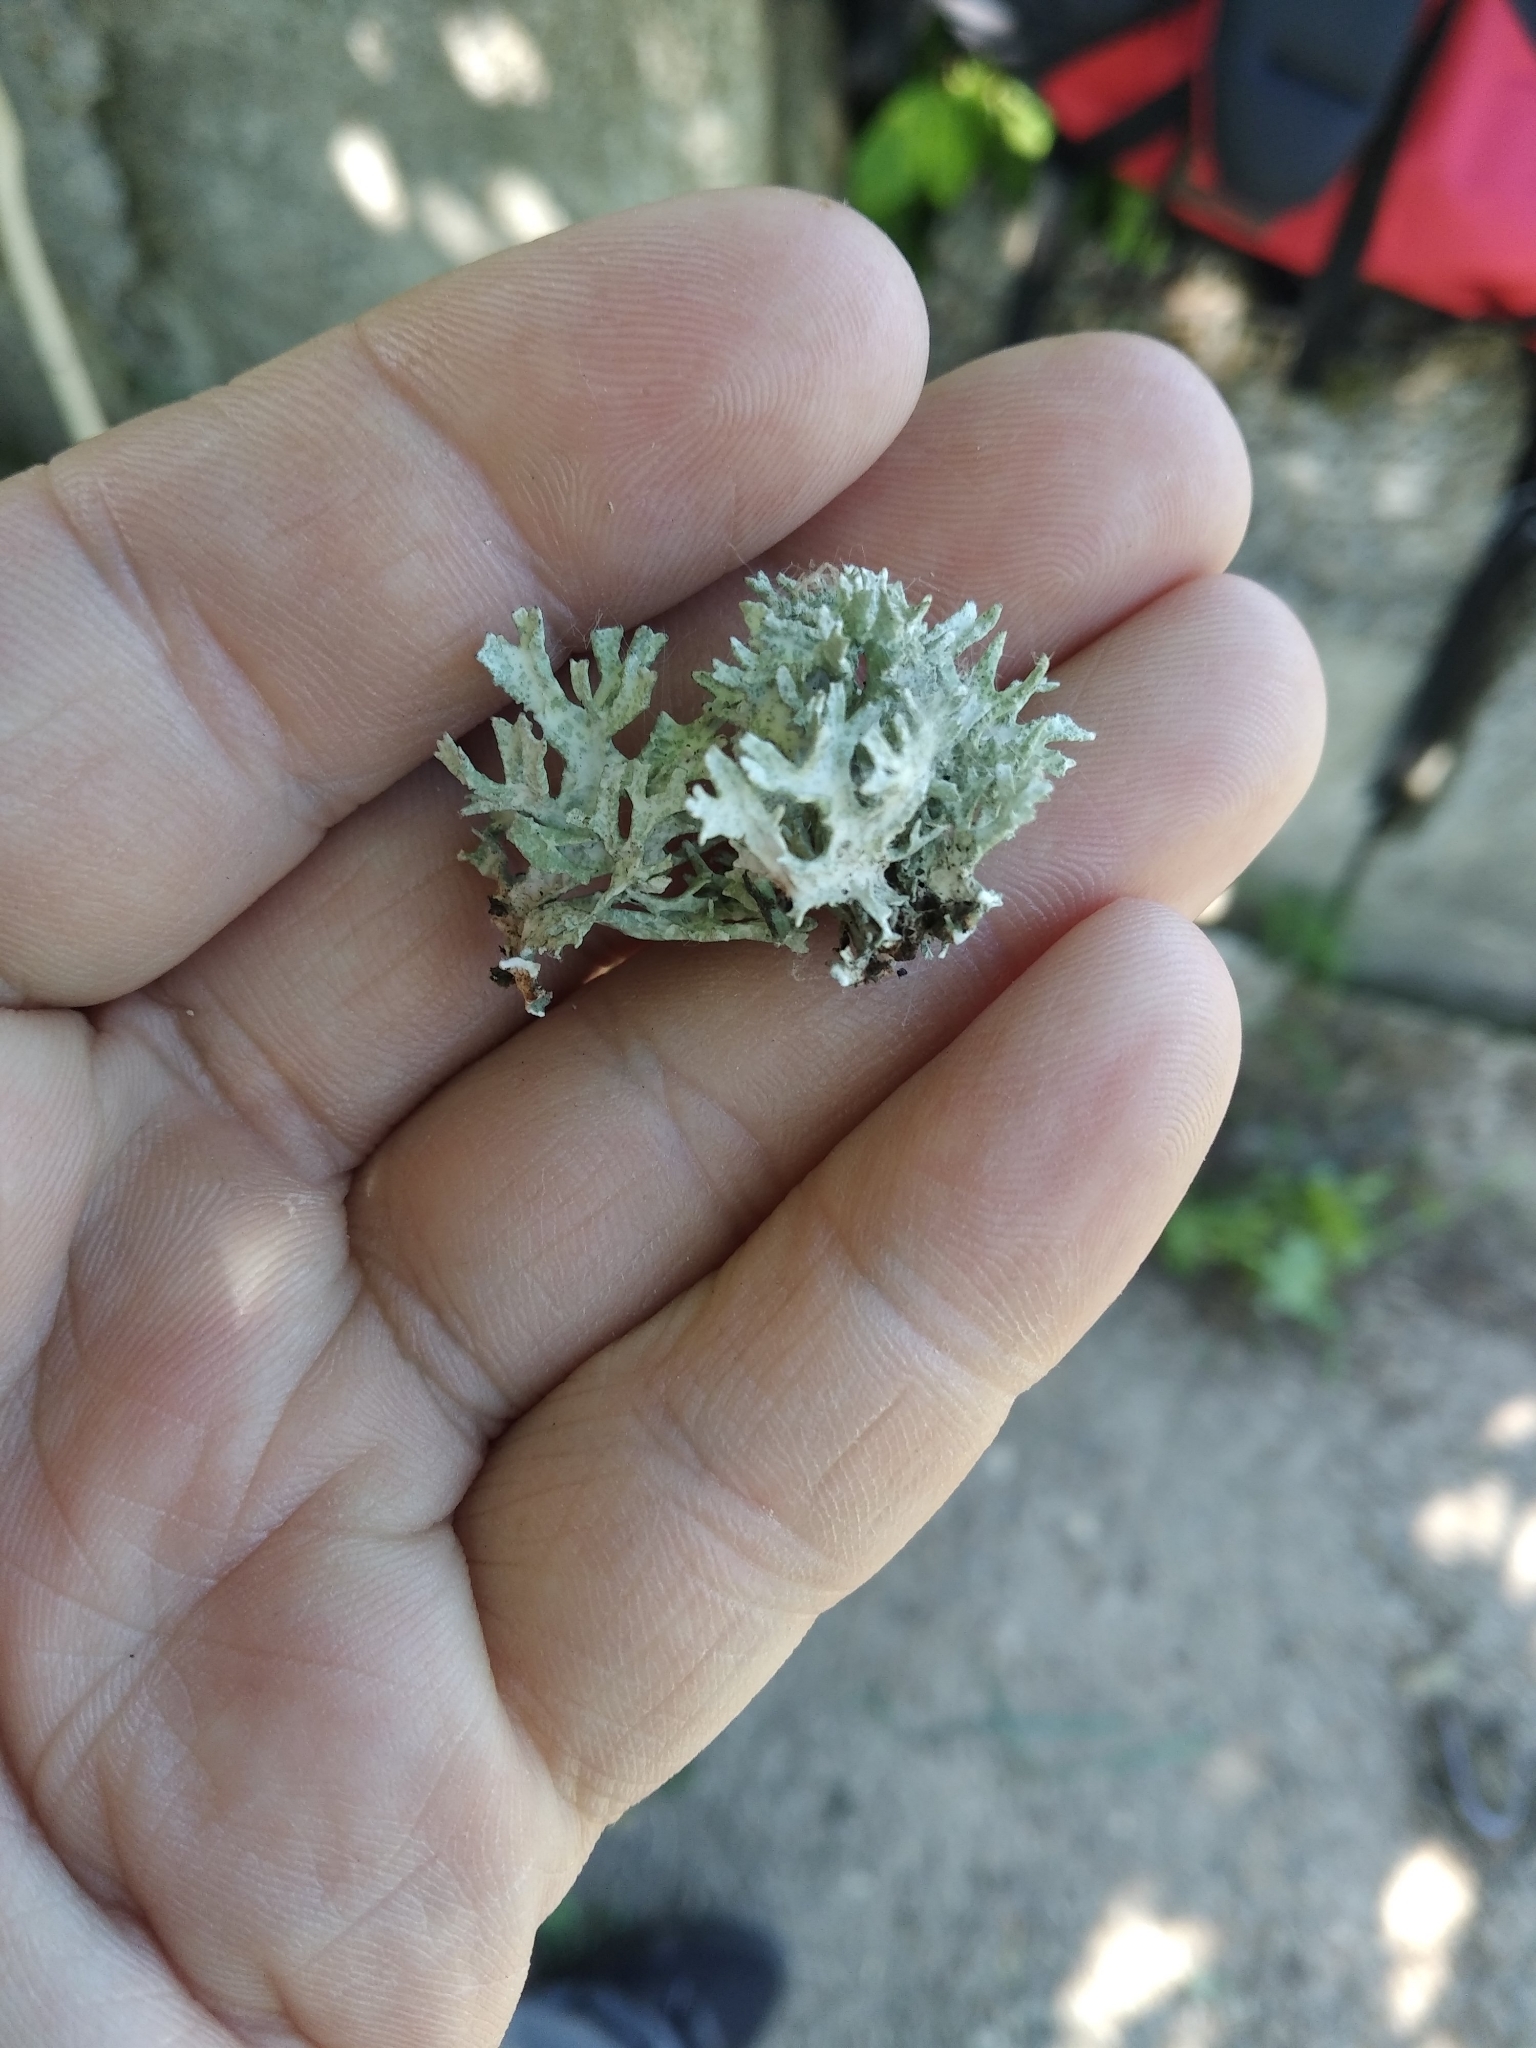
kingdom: Fungi
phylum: Ascomycota
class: Lecanoromycetes
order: Lecanorales
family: Parmeliaceae
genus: Evernia
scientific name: Evernia prunastri
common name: Oak moss
